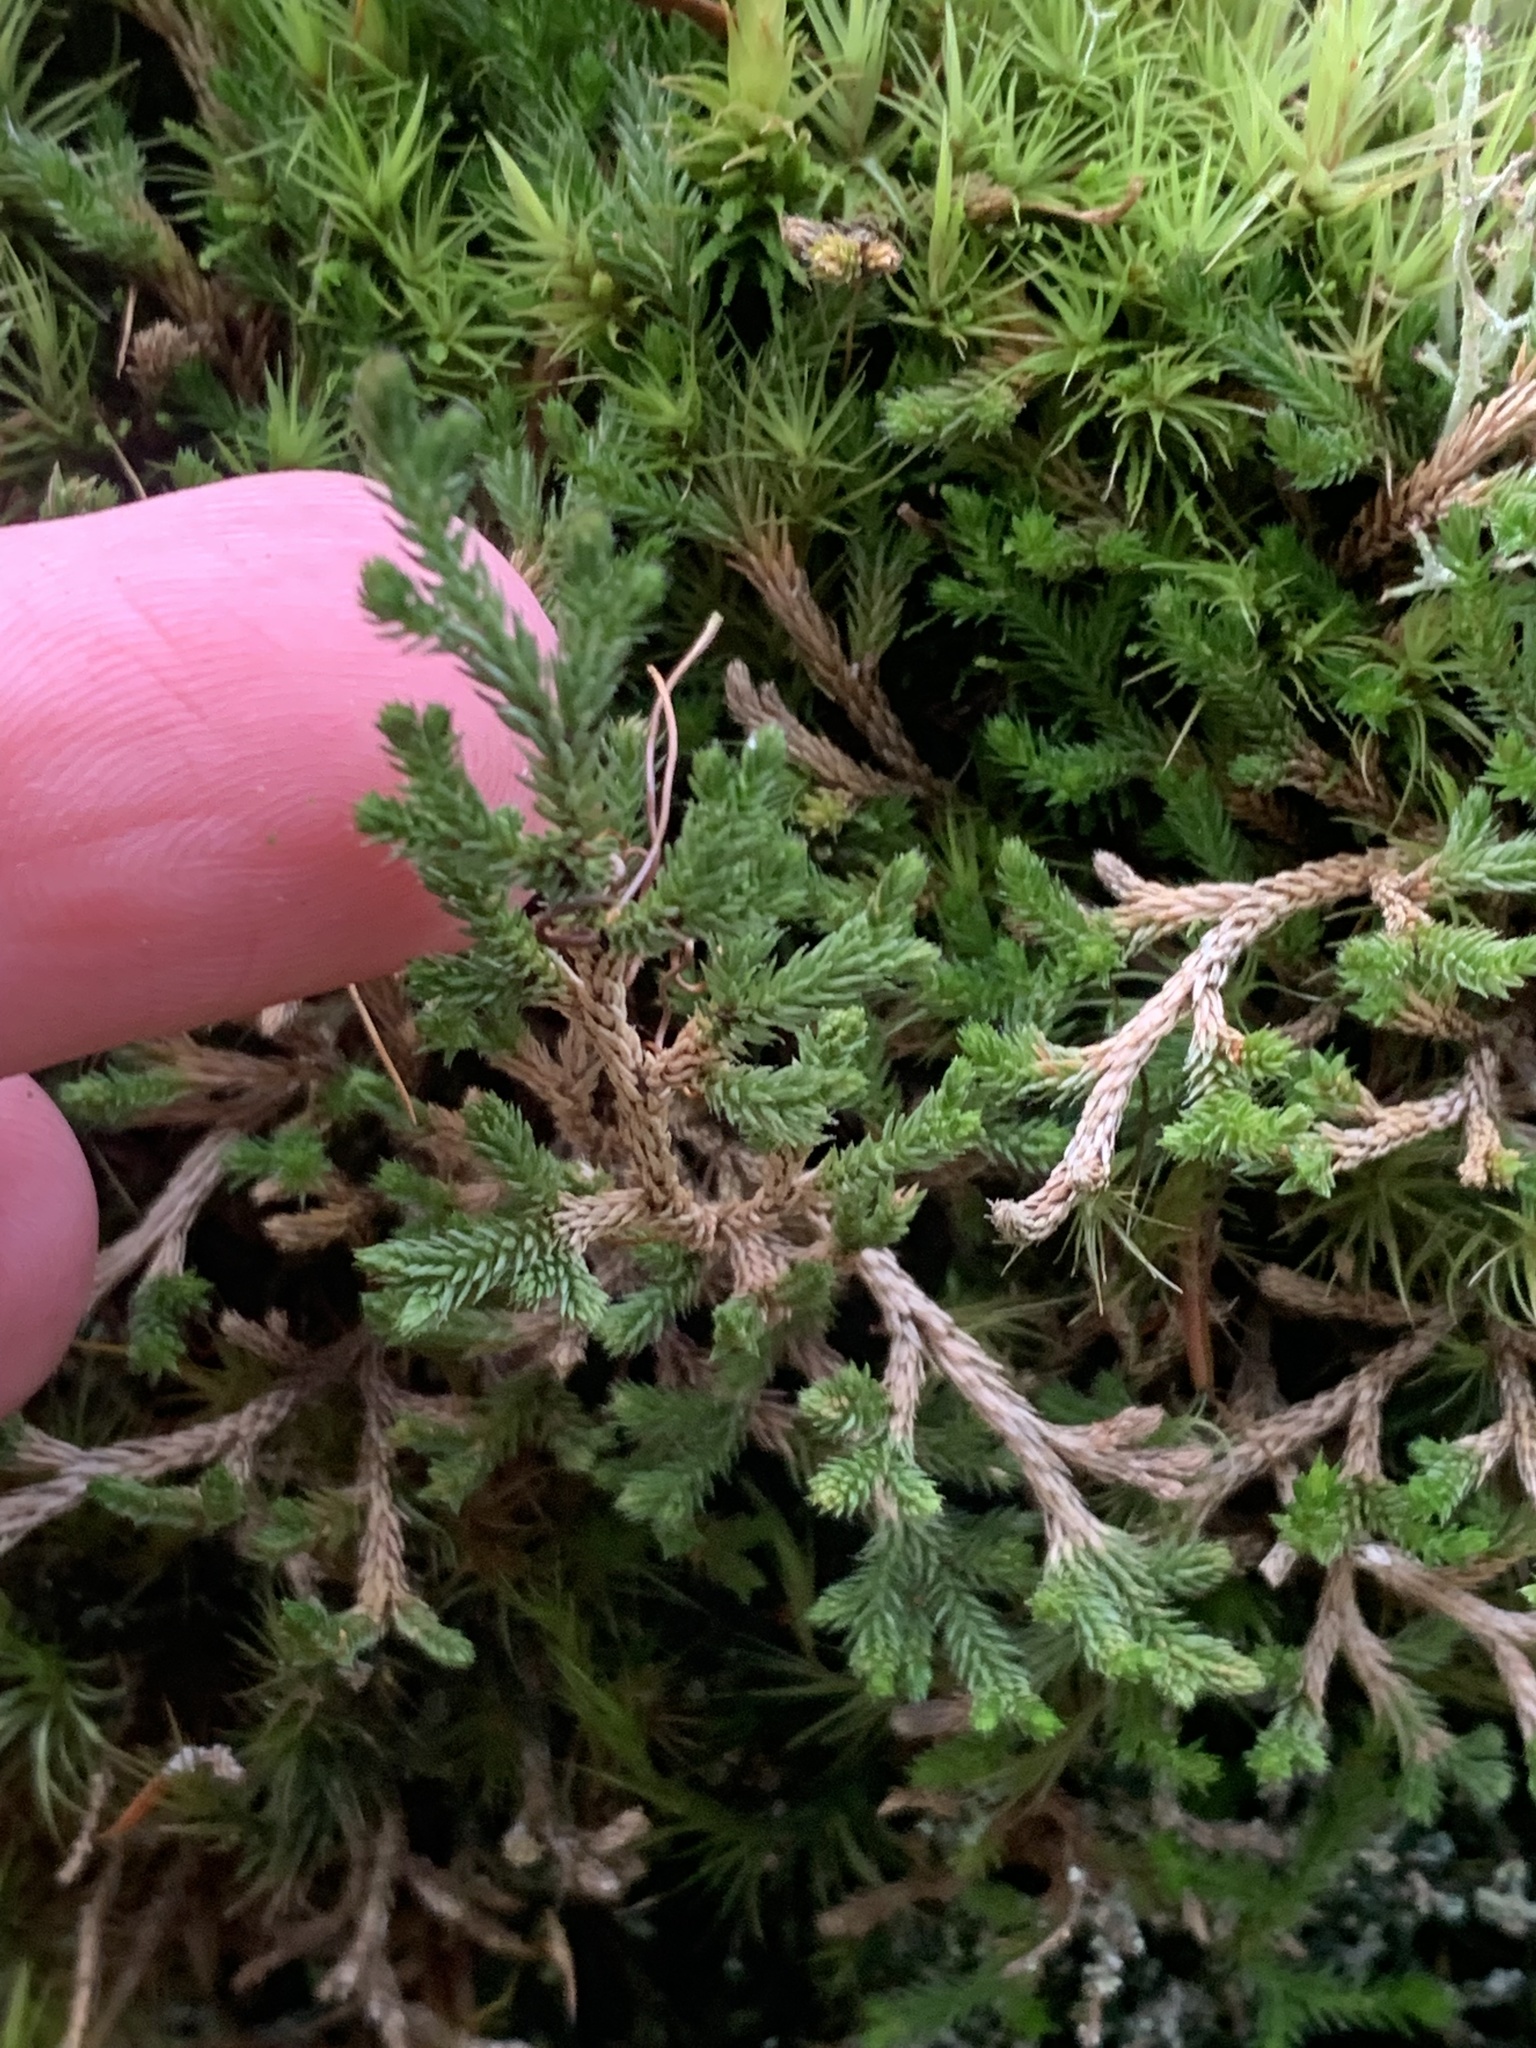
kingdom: Plantae
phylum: Tracheophyta
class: Lycopodiopsida
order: Selaginellales
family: Selaginellaceae
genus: Selaginella
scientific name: Selaginella wallacei
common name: Wallace's selaginella
